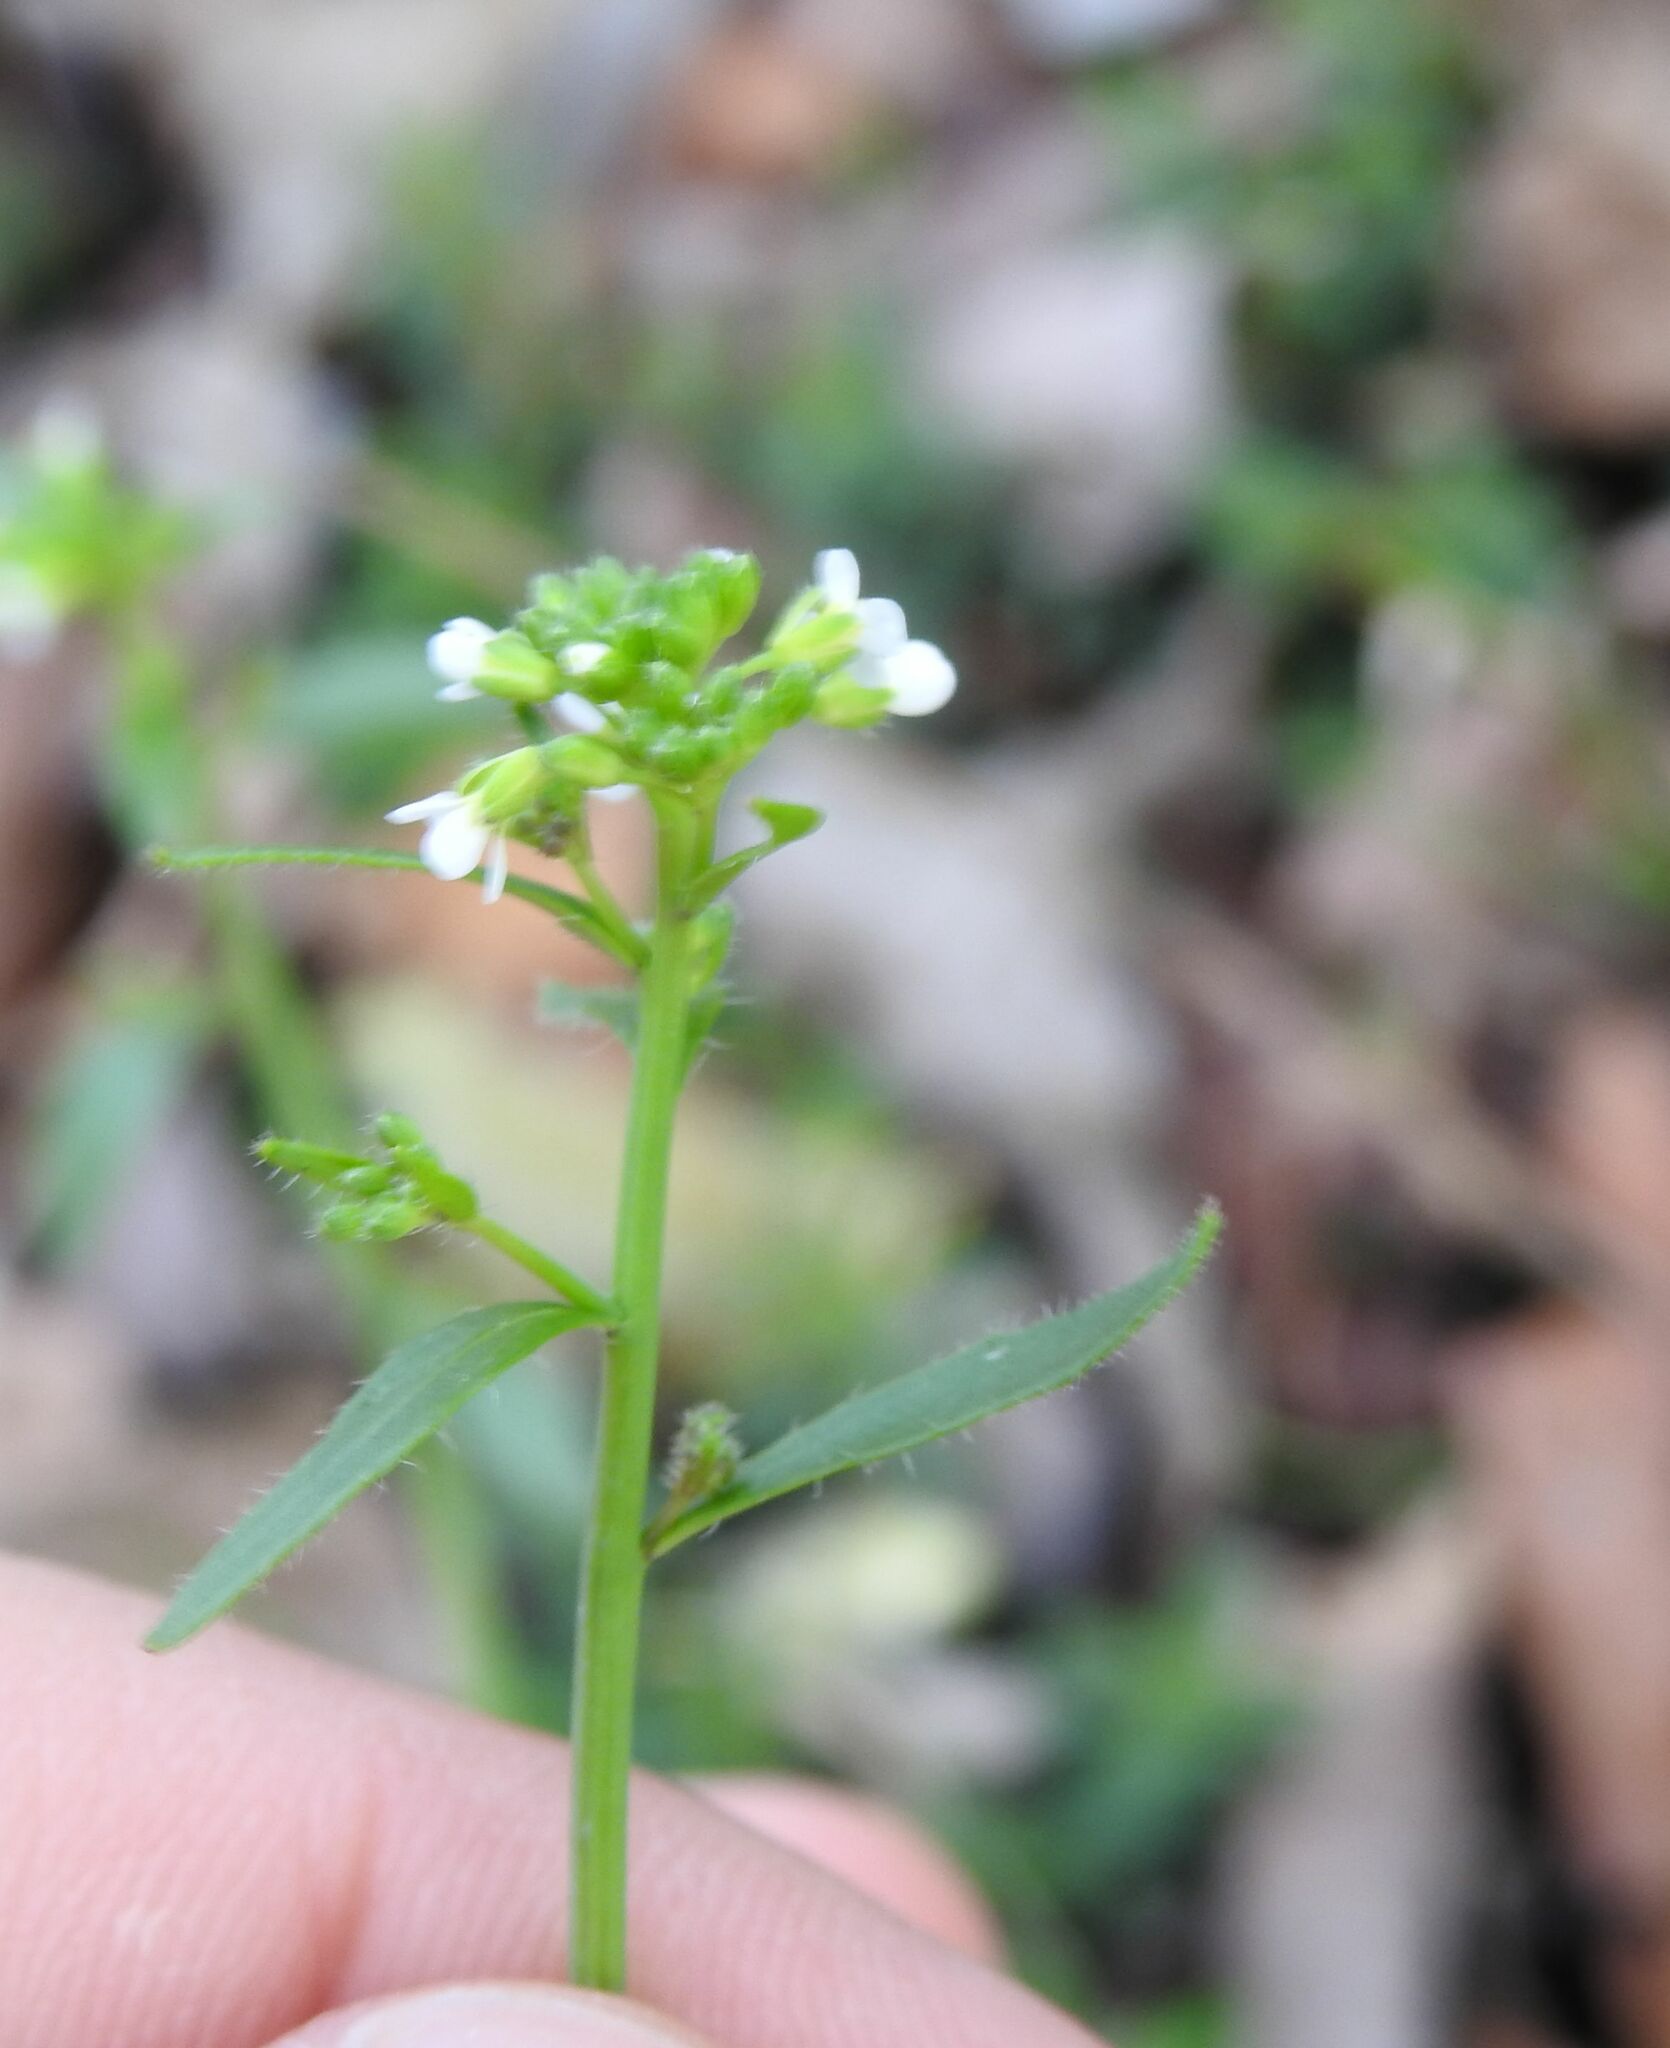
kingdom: Plantae
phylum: Tracheophyta
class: Magnoliopsida
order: Brassicales
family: Brassicaceae
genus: Arabidopsis
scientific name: Arabidopsis thaliana
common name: Thale cress
